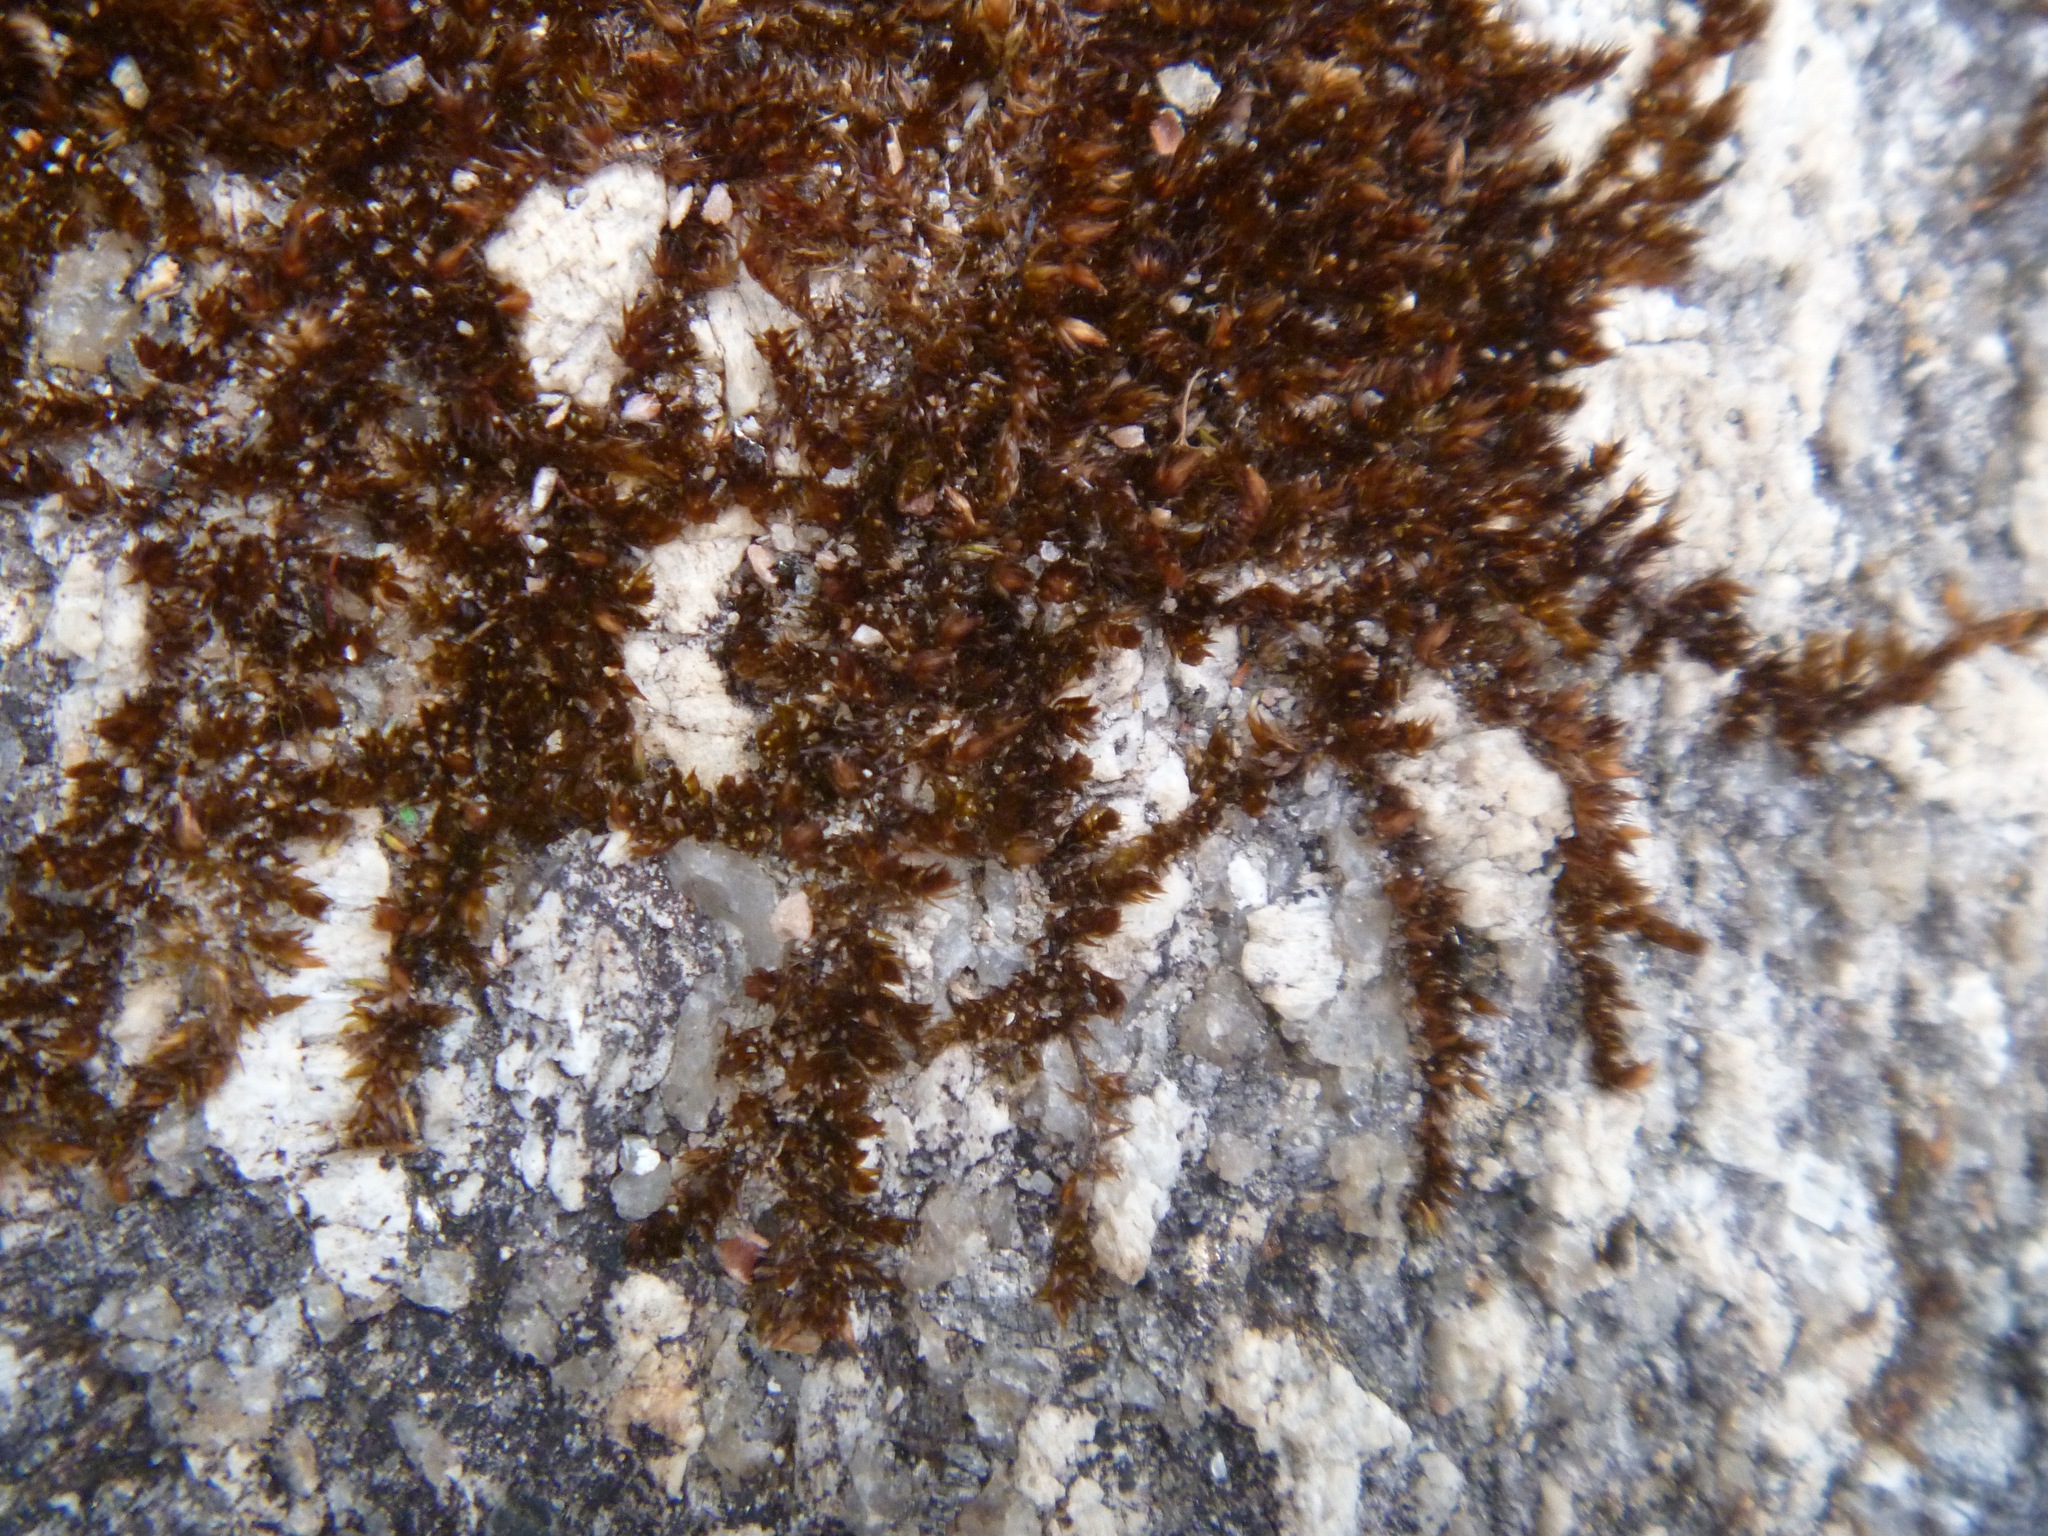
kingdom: Plantae
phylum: Bryophyta
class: Bryopsida
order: Hypnales
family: Sematophyllaceae
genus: Sematophyllum
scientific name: Sematophyllum homomallum
